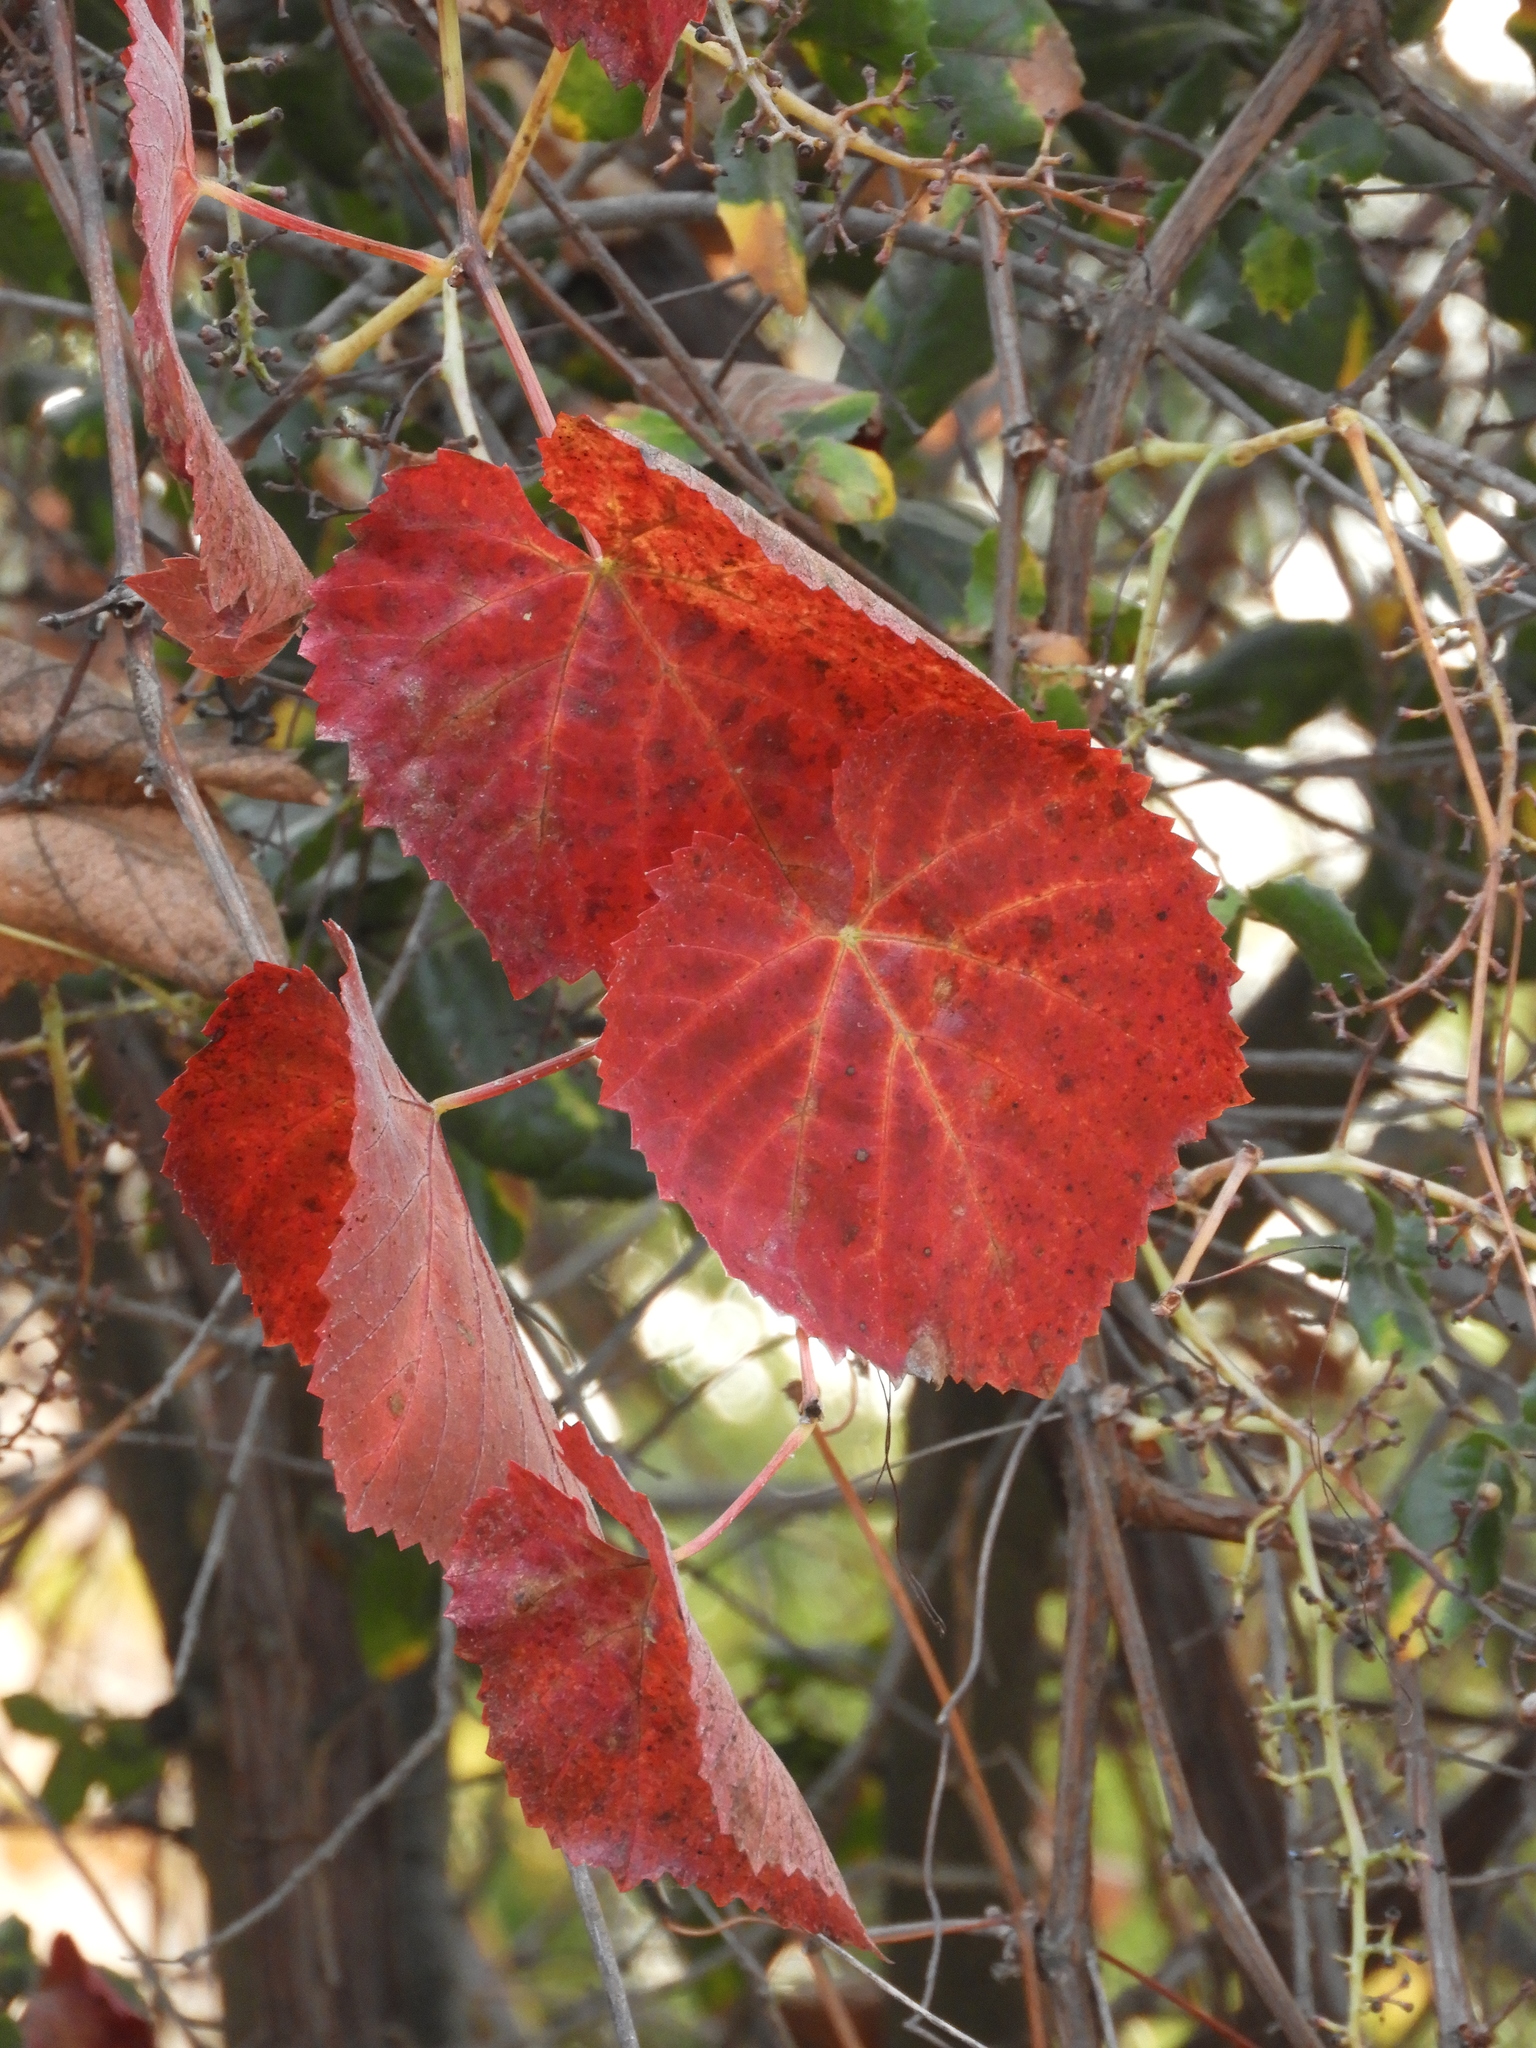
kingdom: Plantae
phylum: Tracheophyta
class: Magnoliopsida
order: Vitales
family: Vitaceae
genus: Vitis
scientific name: Vitis californica
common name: California wild grape
